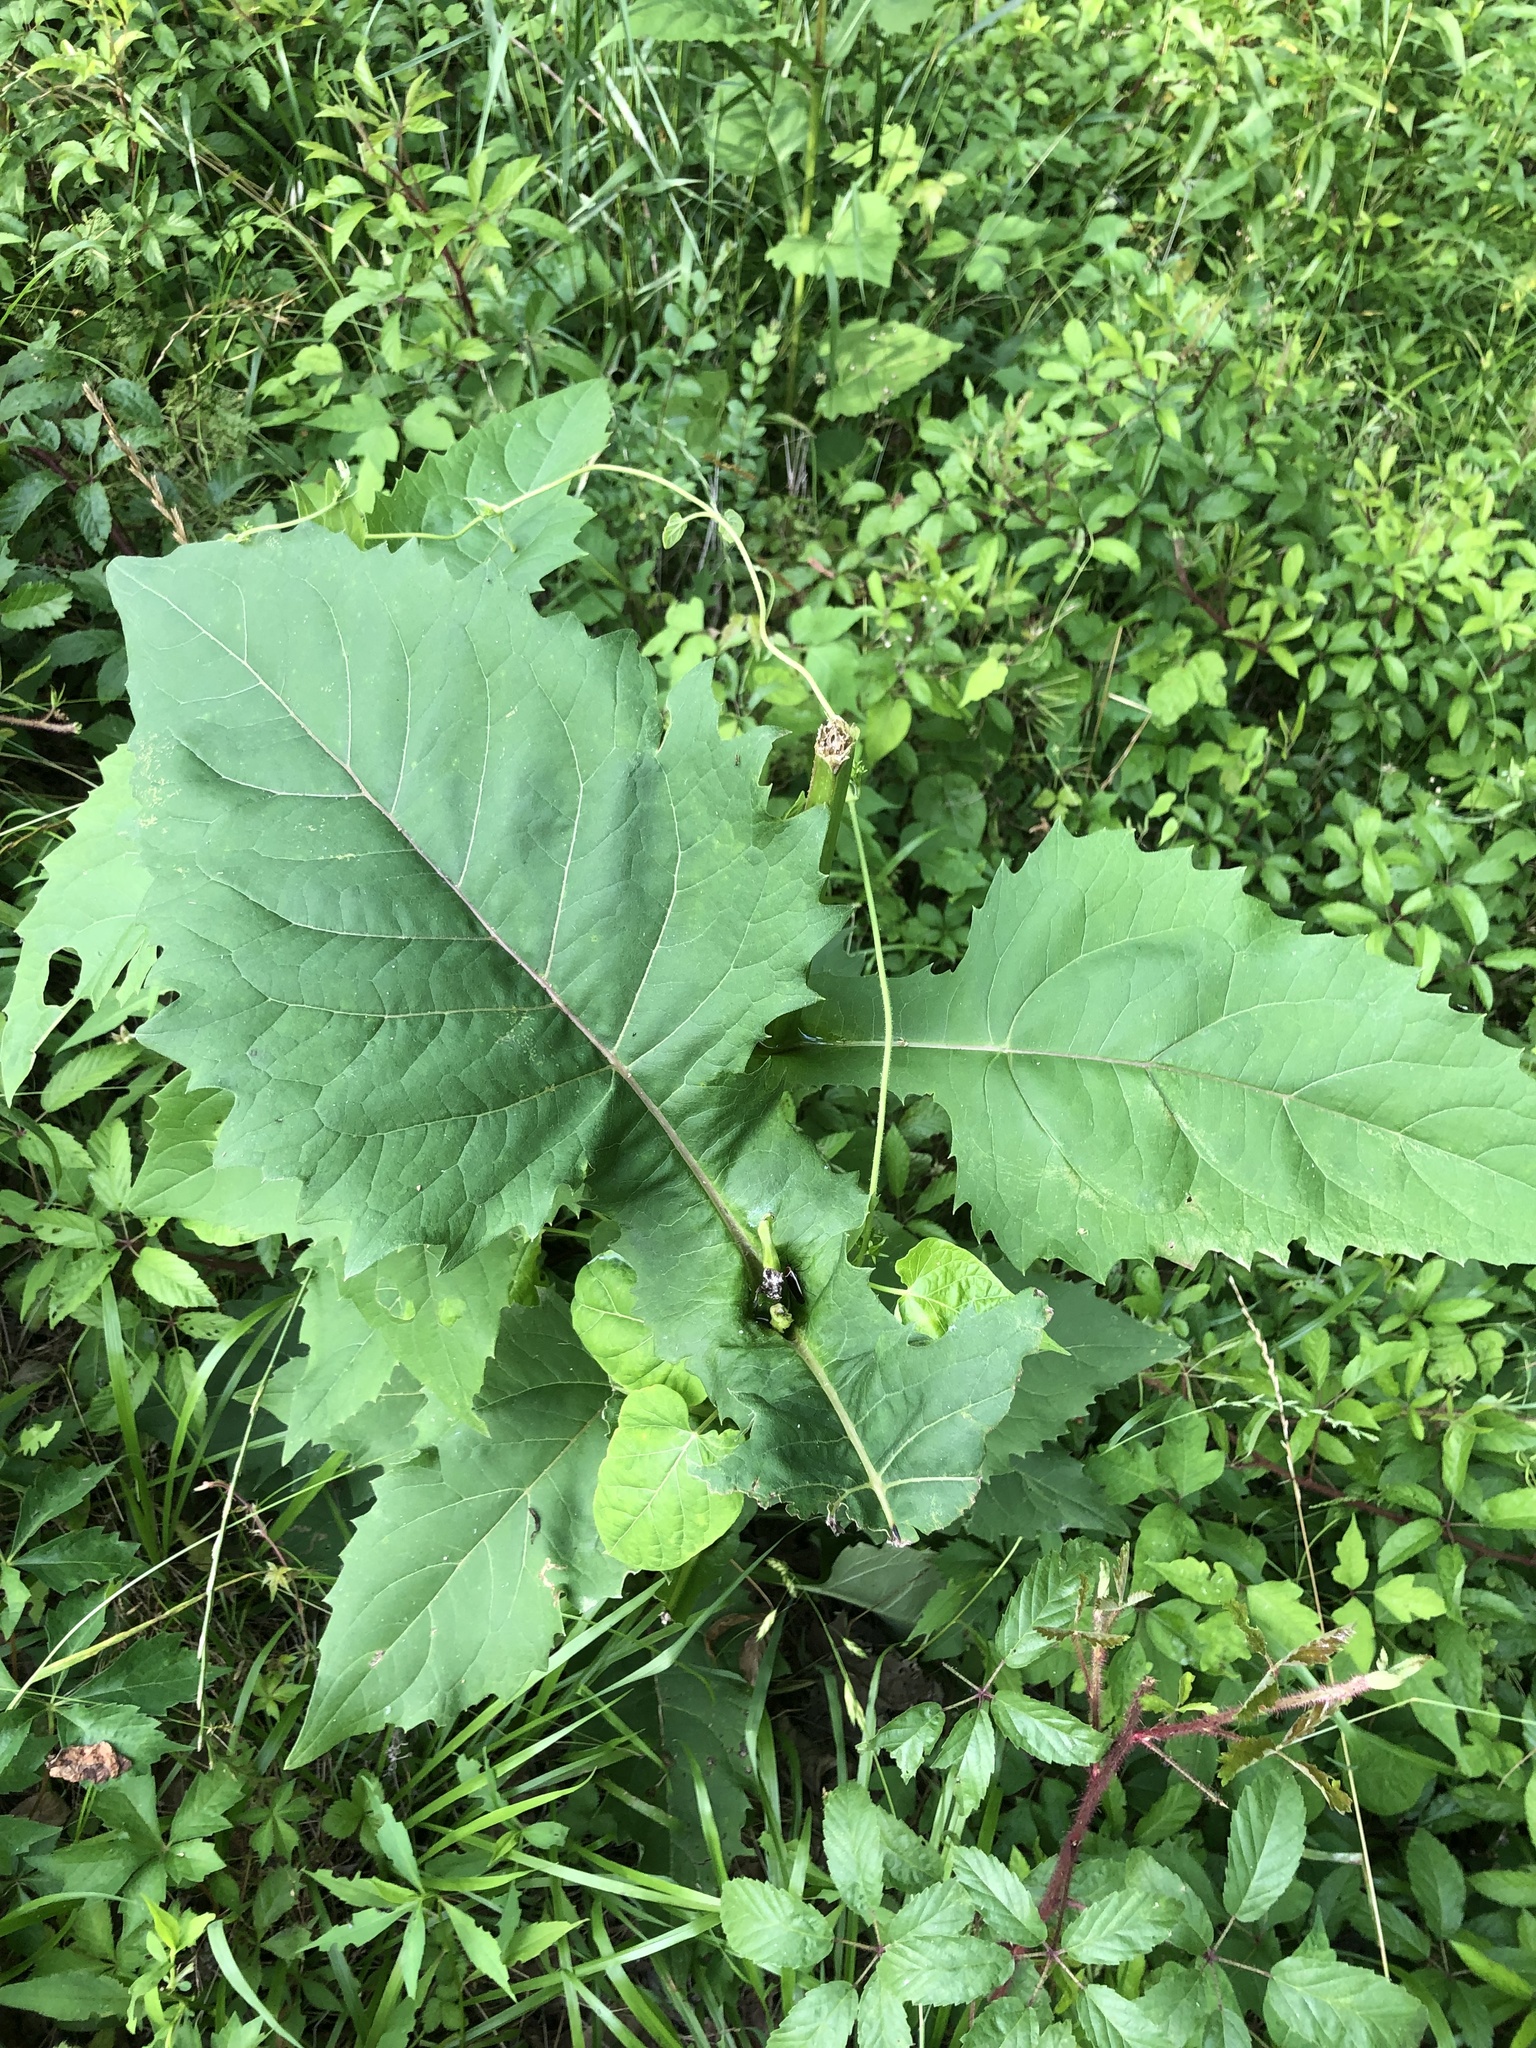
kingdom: Plantae
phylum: Tracheophyta
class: Magnoliopsida
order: Asterales
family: Asteraceae
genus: Silphium
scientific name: Silphium perfoliatum
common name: Cup-plant
